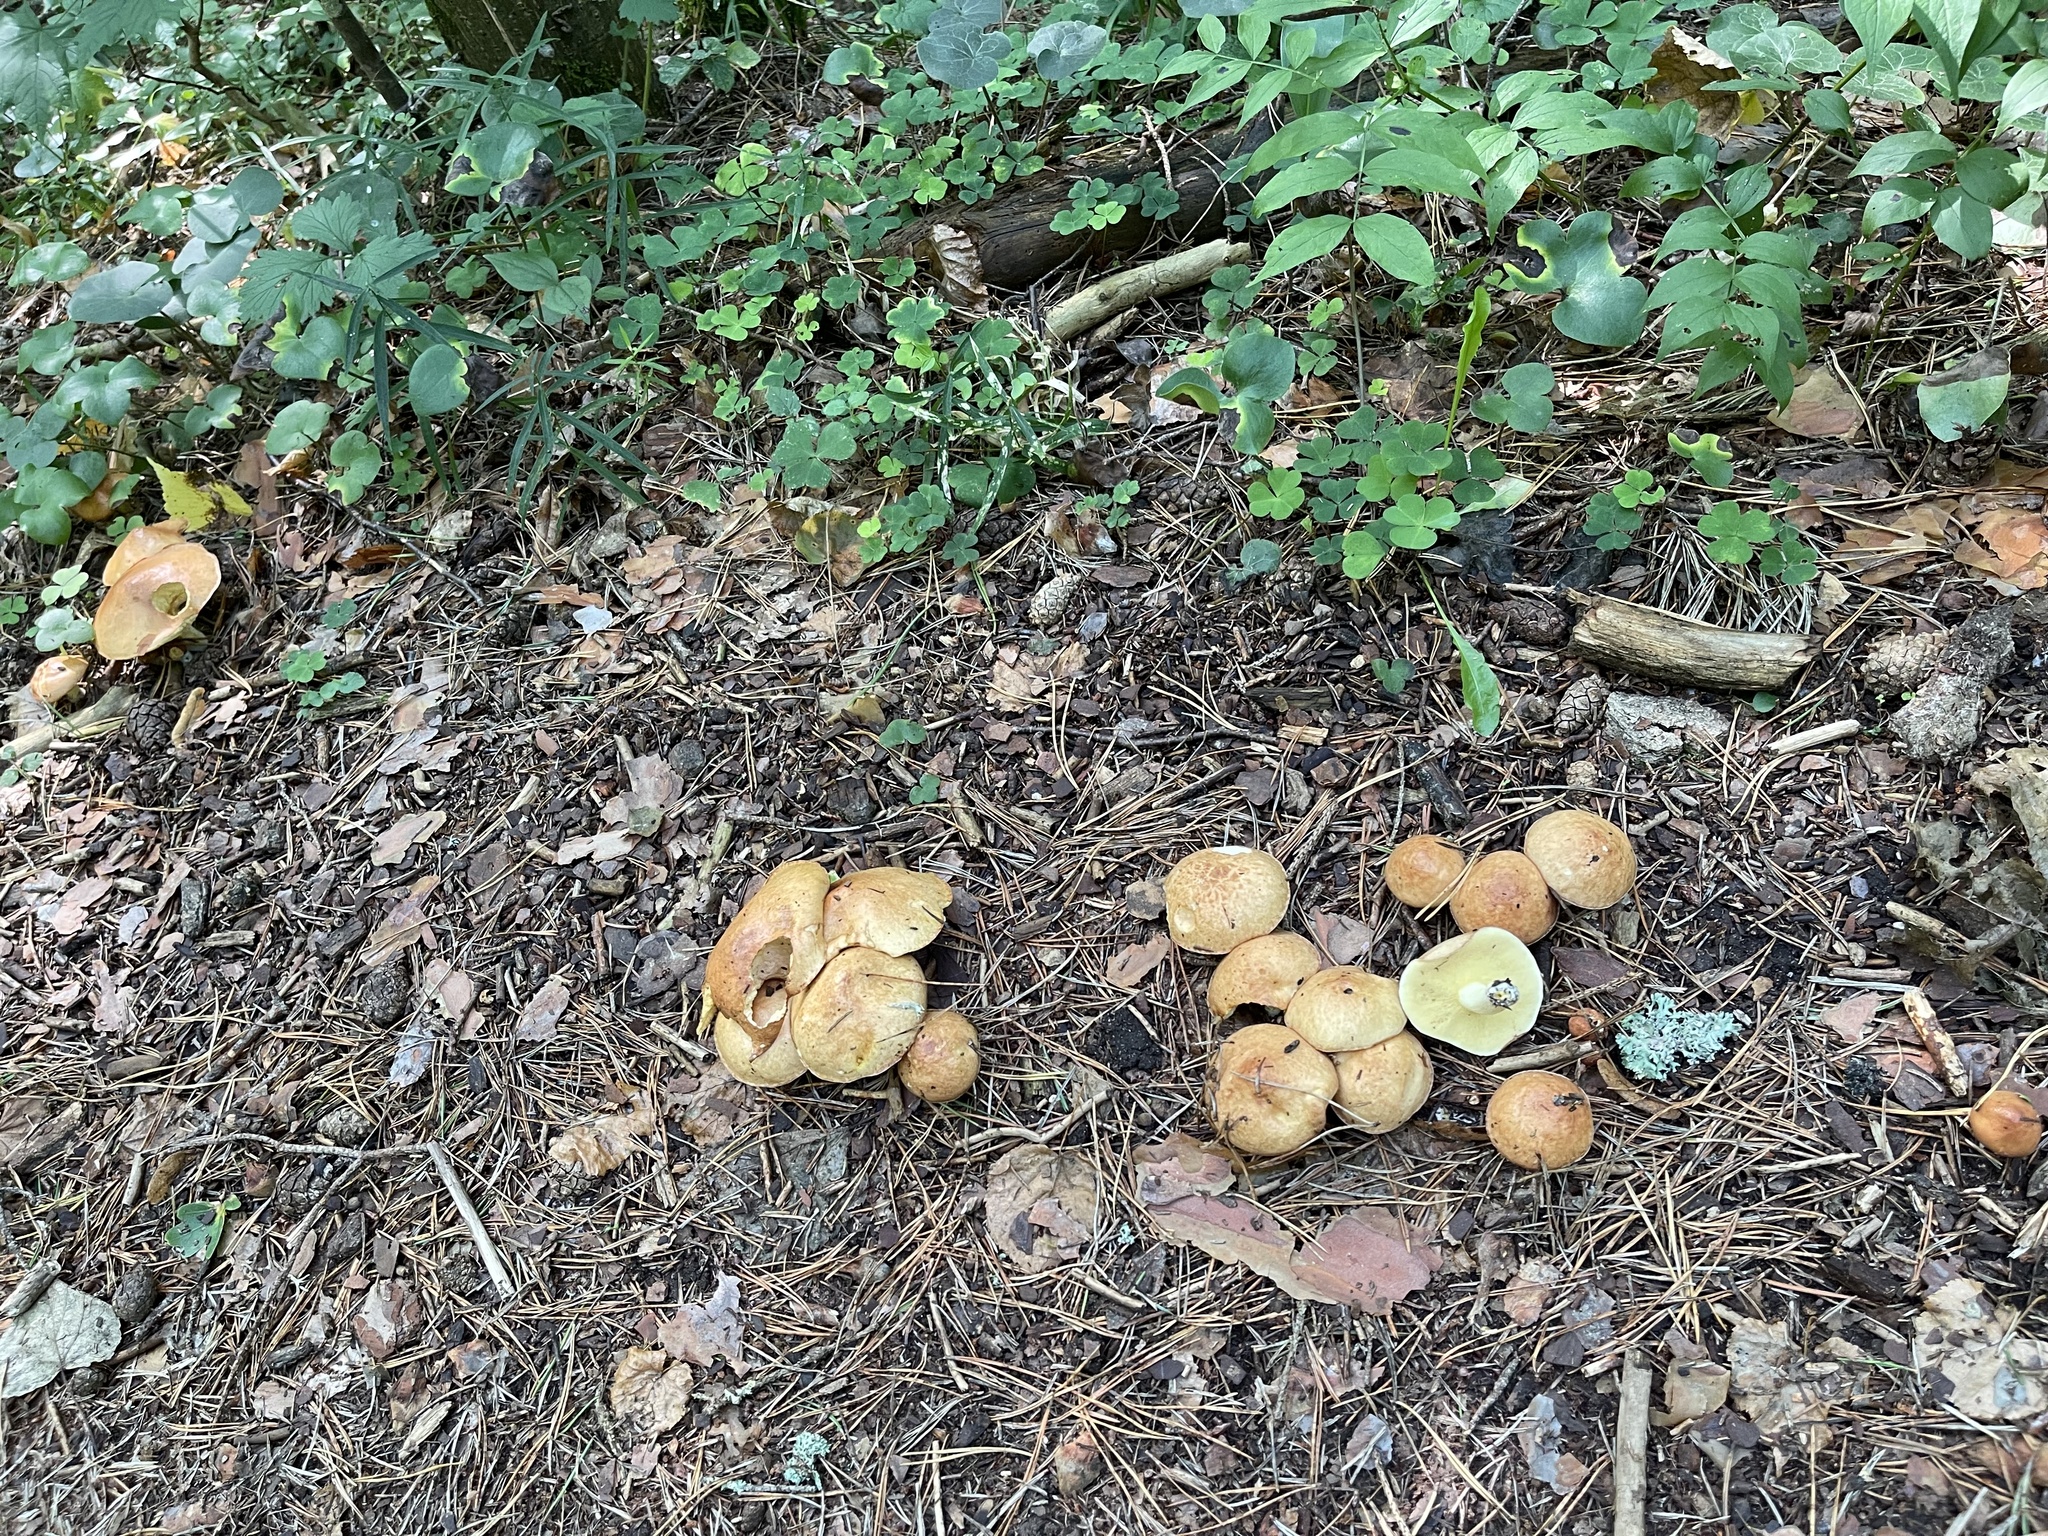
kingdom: Fungi
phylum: Basidiomycota
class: Agaricomycetes
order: Boletales
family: Suillaceae
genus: Suillus
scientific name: Suillus granulatus
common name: Weeping bolete
